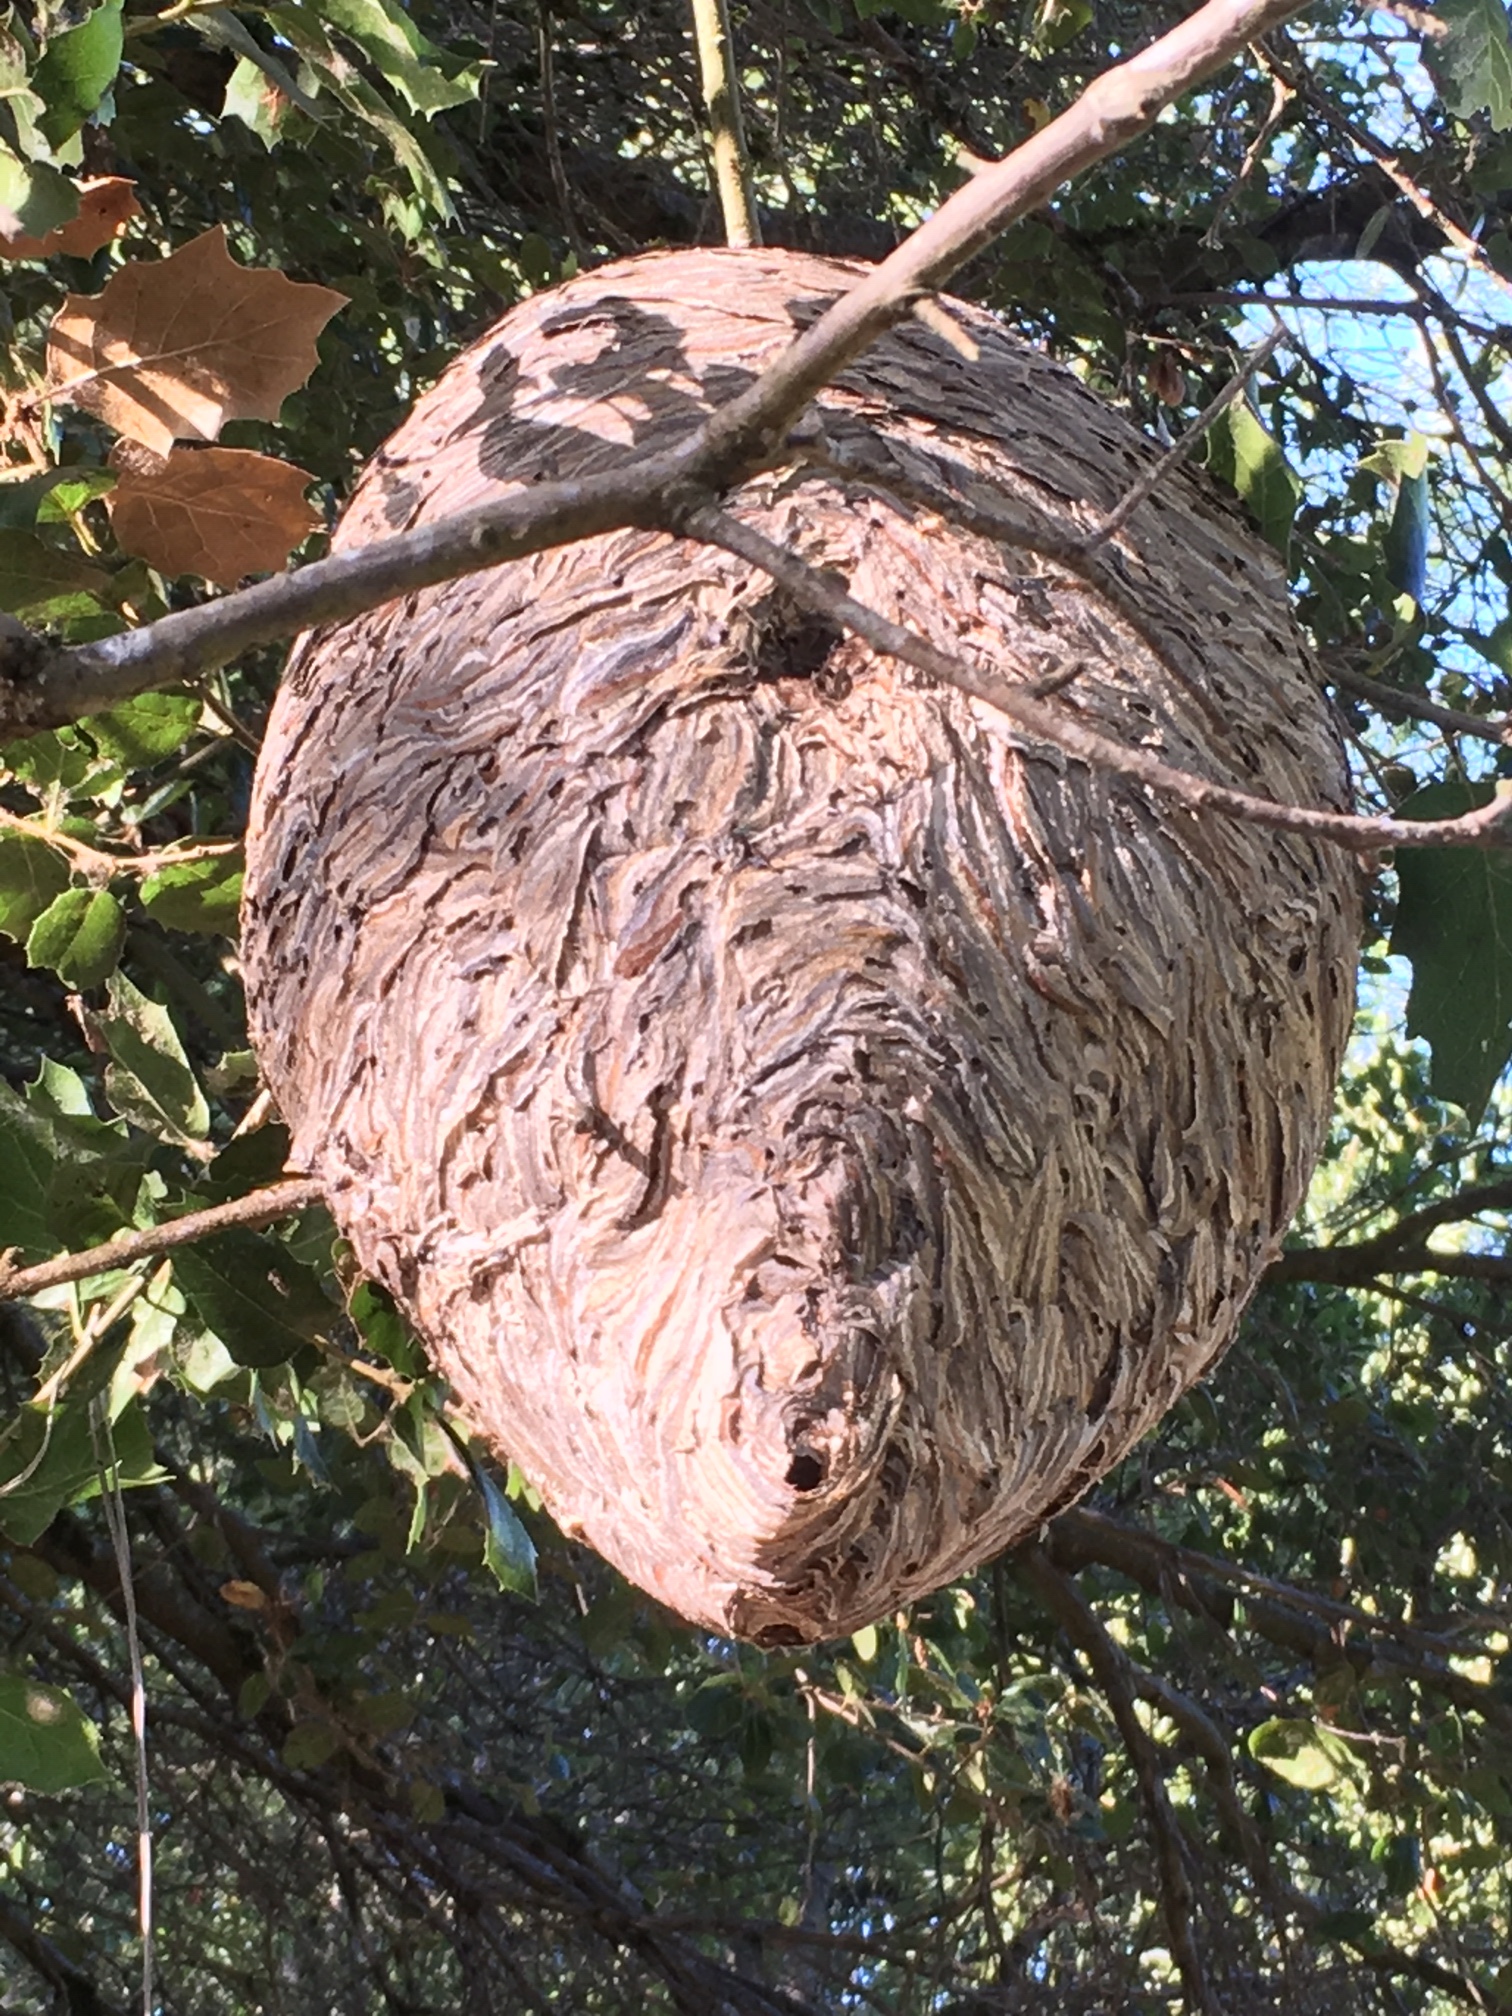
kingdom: Animalia
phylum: Arthropoda
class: Insecta
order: Hymenoptera
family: Vespidae
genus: Dolichovespula
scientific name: Dolichovespula arenaria
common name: Aerial yellowjacket
